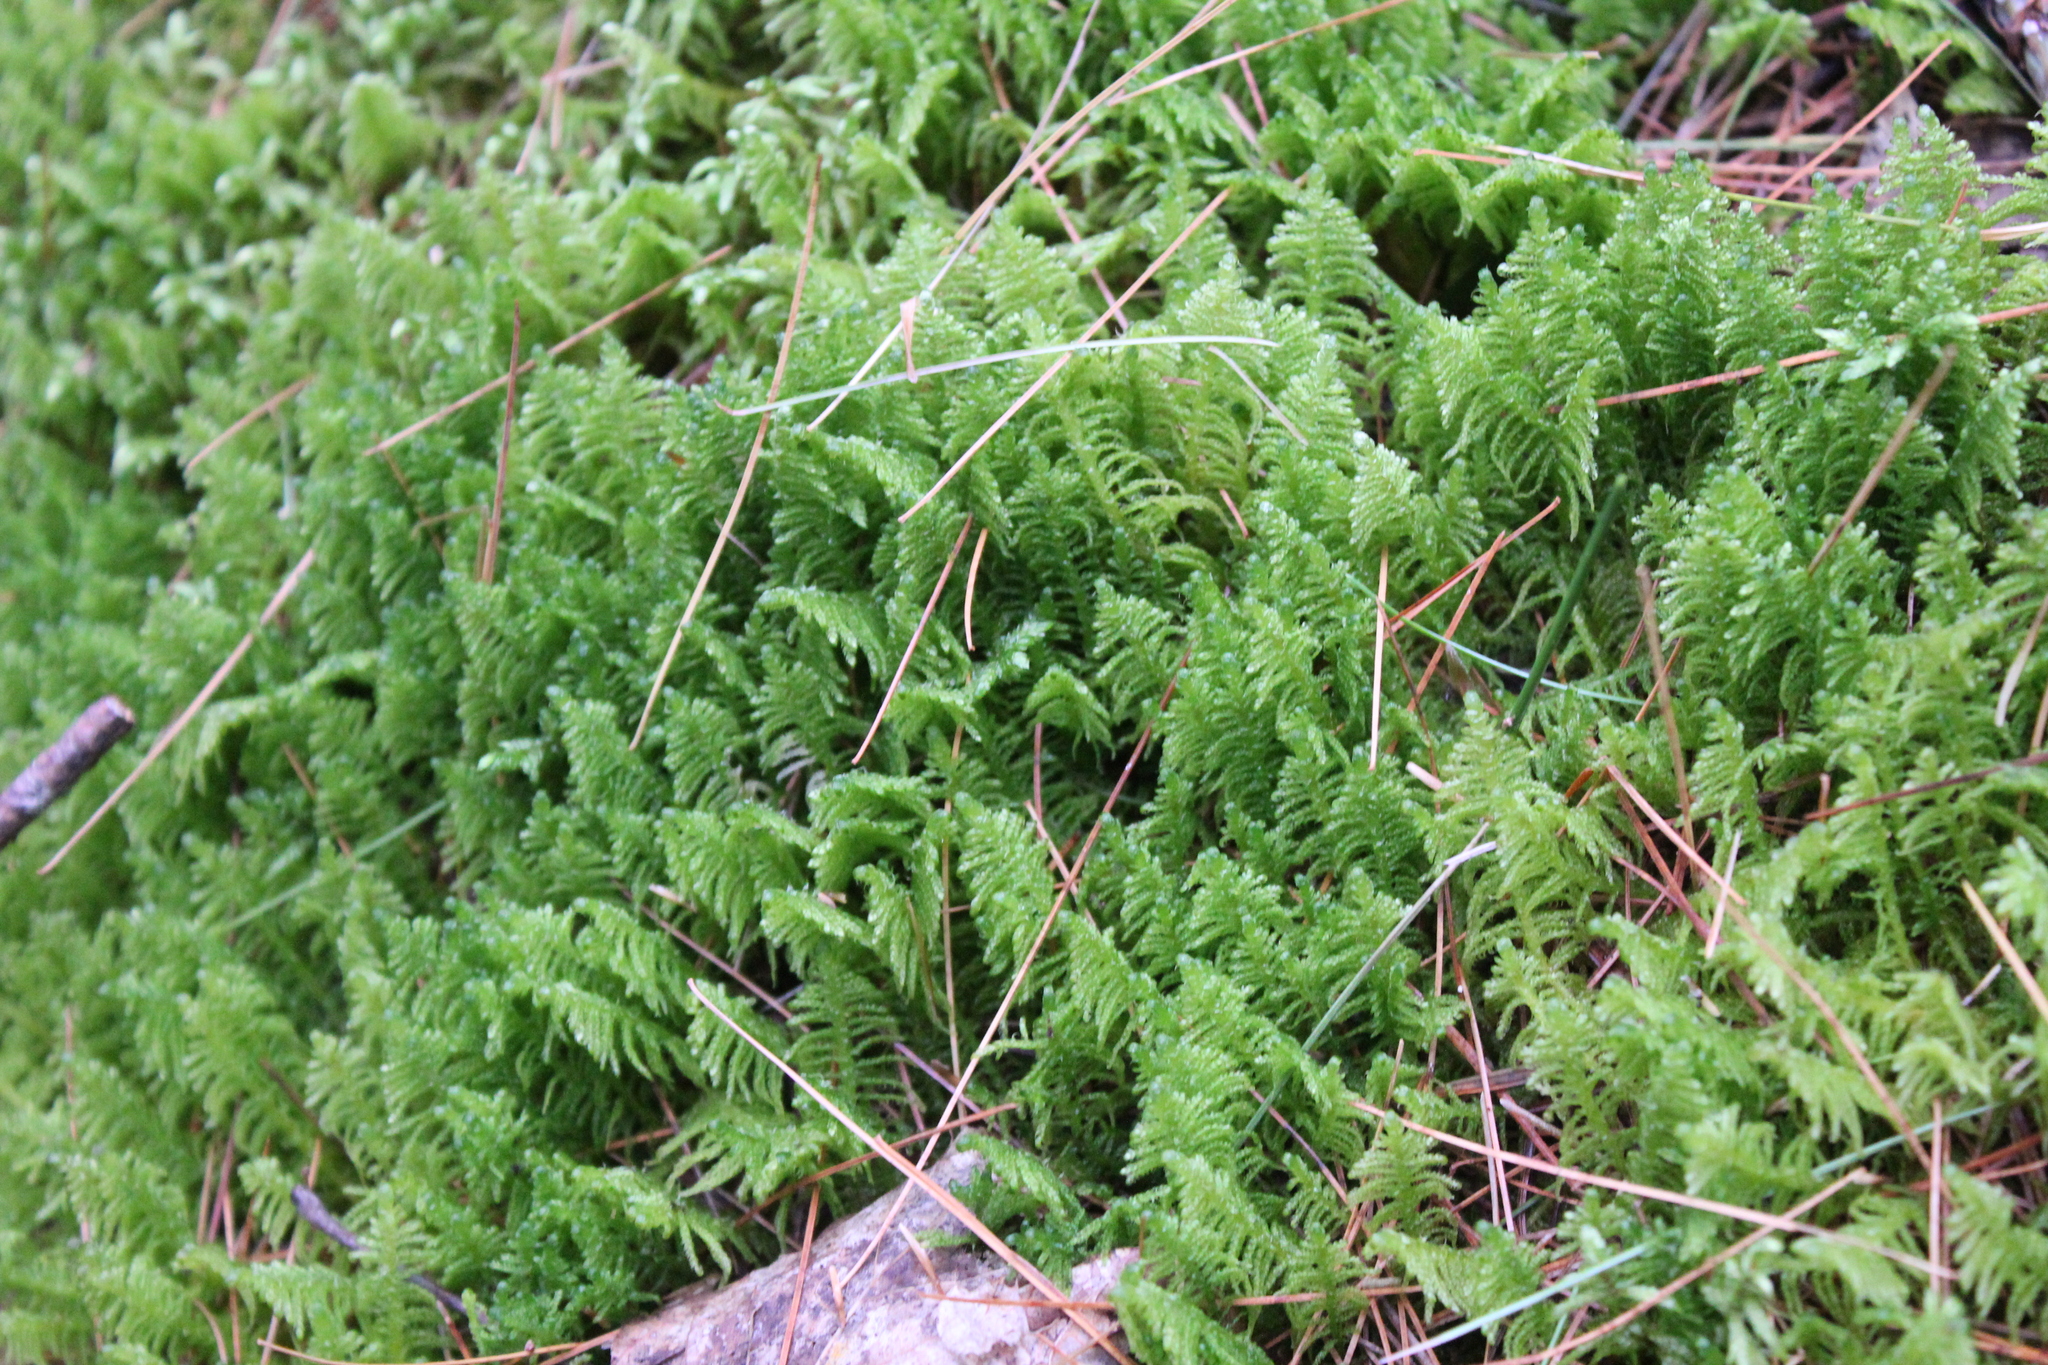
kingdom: Plantae
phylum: Bryophyta
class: Bryopsida
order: Hypnales
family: Pylaisiaceae
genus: Ptilium
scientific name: Ptilium crista-castrensis
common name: Knight's plume moss
